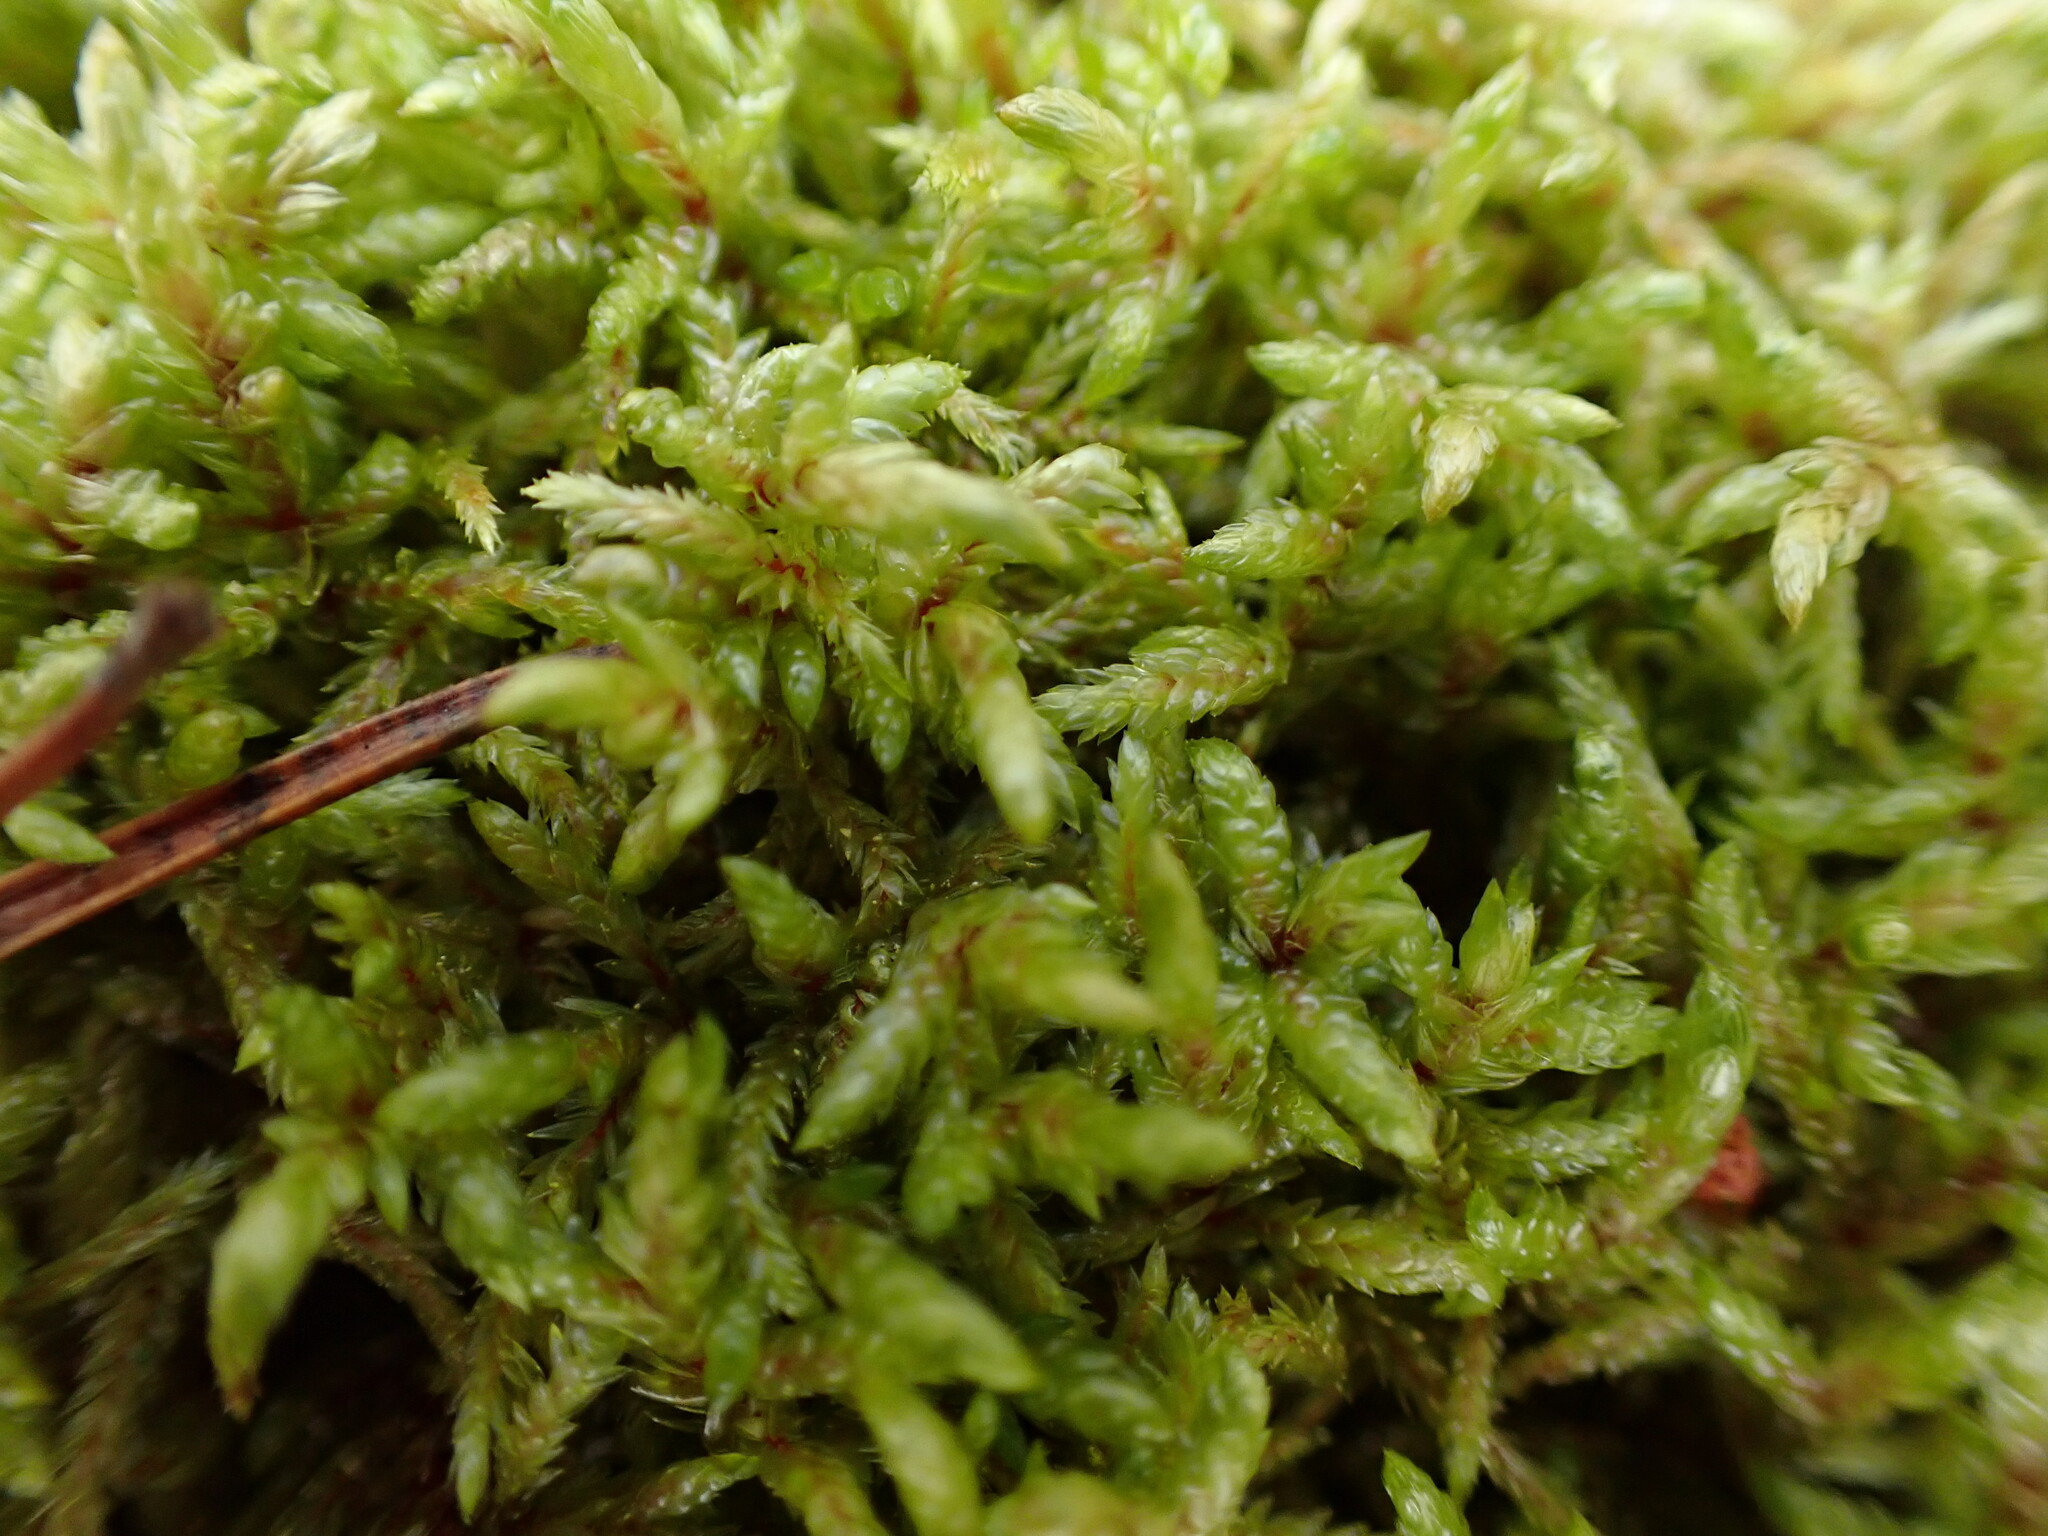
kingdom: Plantae
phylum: Bryophyta
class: Bryopsida
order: Hypnales
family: Hylocomiaceae
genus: Pleurozium
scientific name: Pleurozium schreberi
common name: Red-stemmed feather moss
